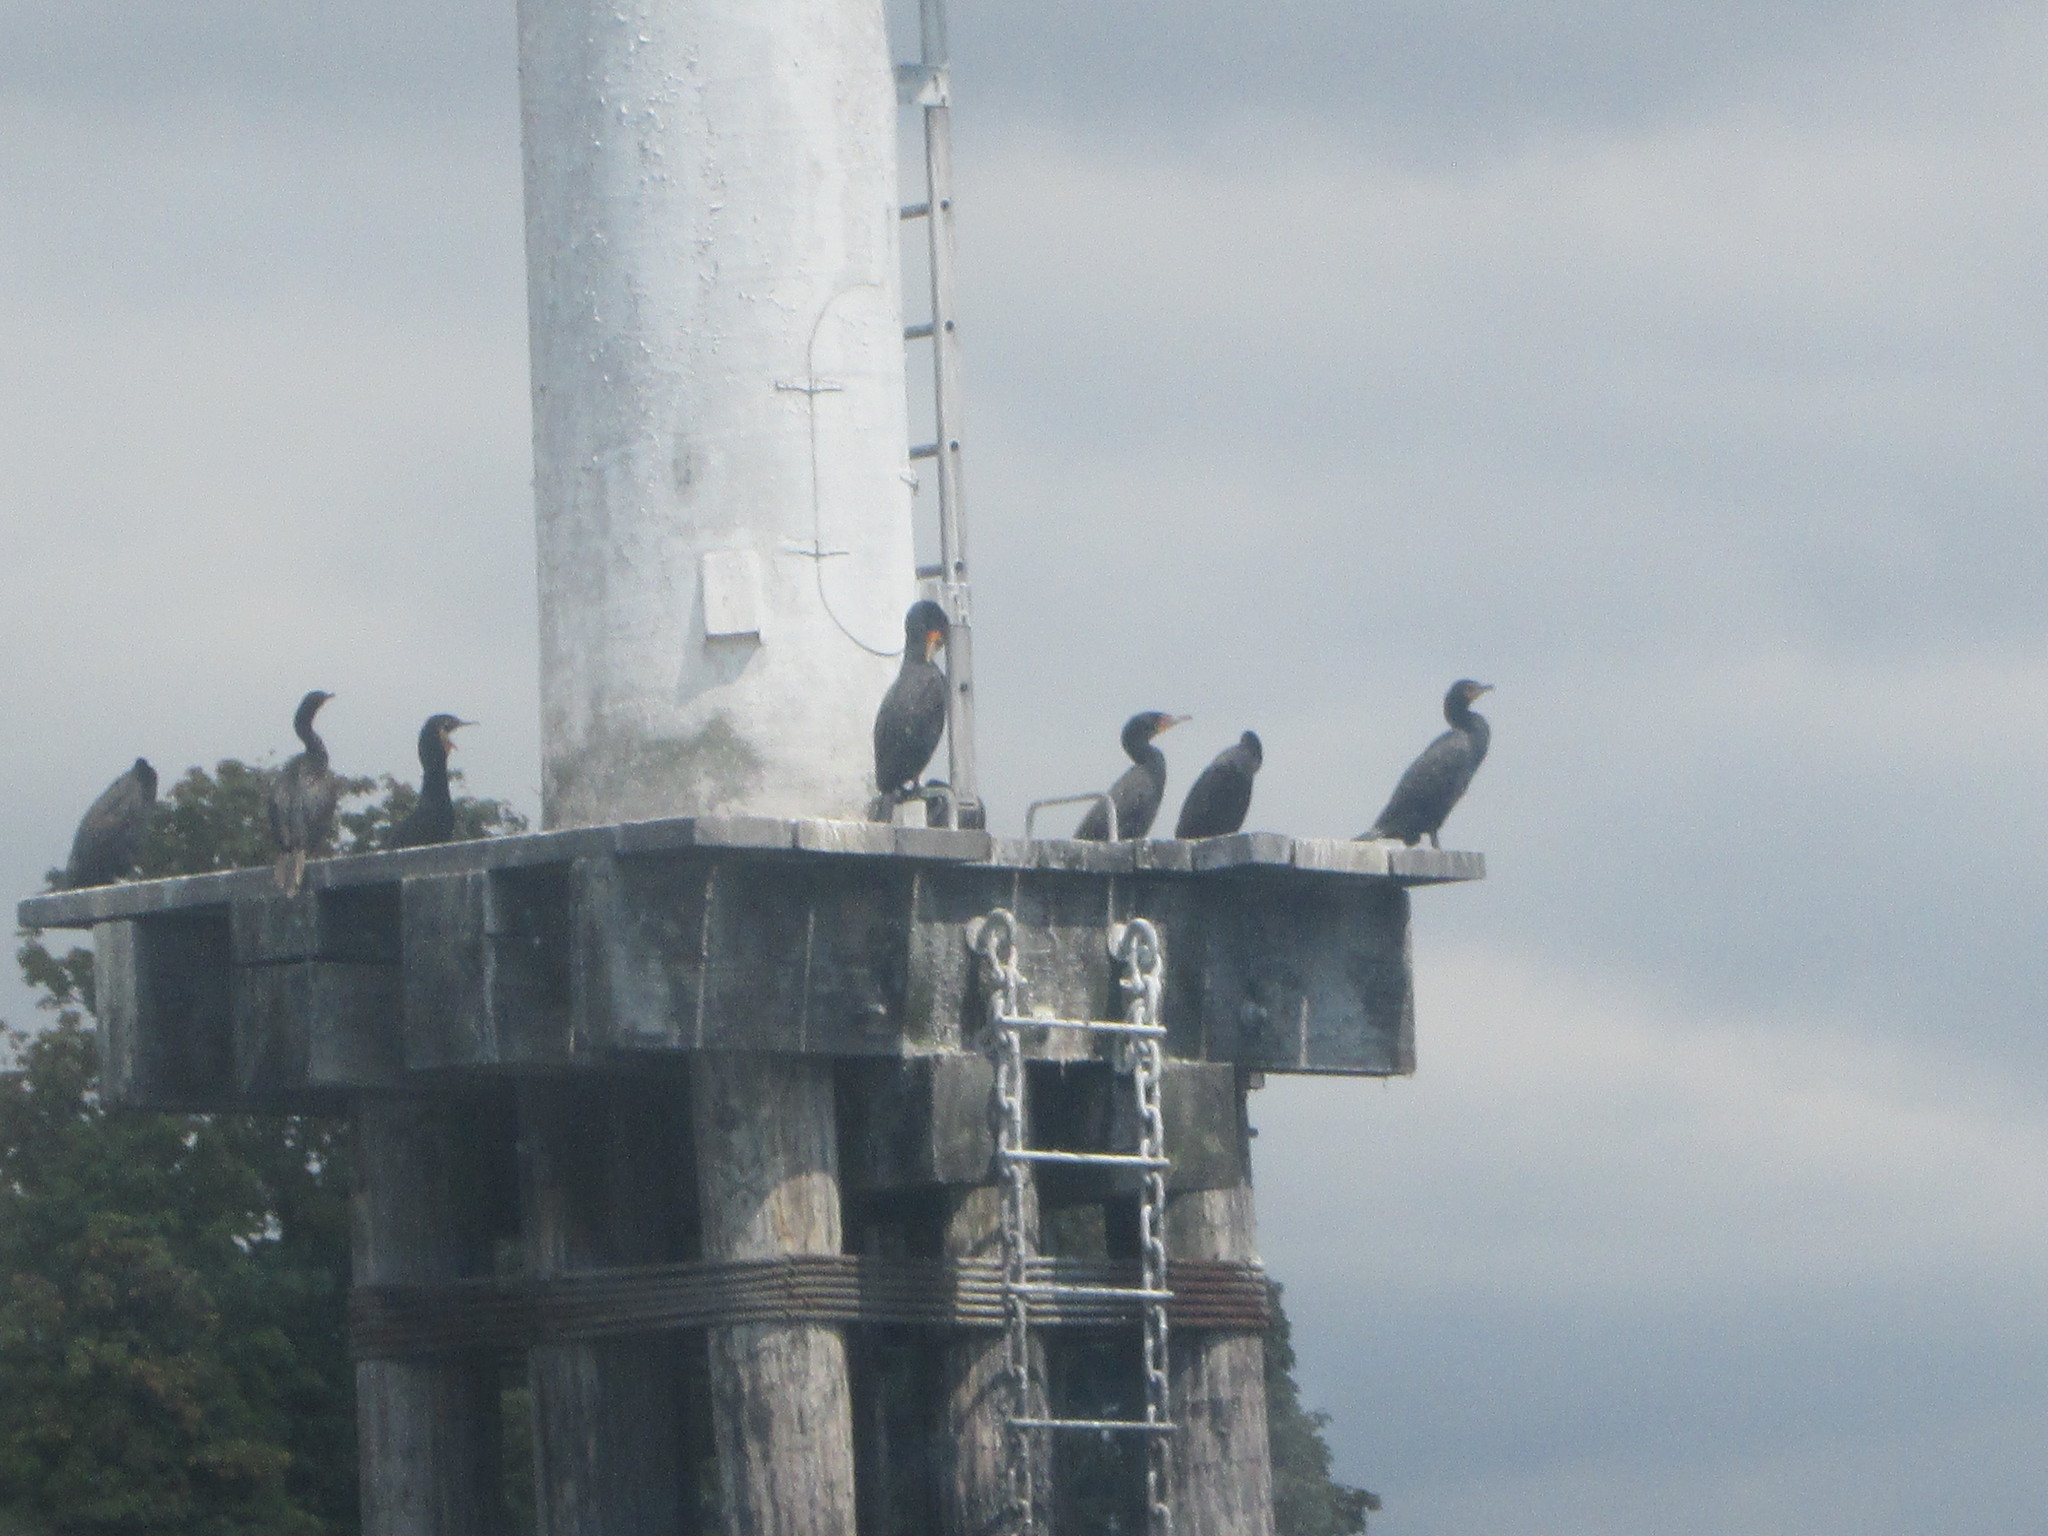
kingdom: Animalia
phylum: Chordata
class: Aves
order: Suliformes
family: Phalacrocoracidae
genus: Phalacrocorax
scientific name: Phalacrocorax auritus
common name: Double-crested cormorant
